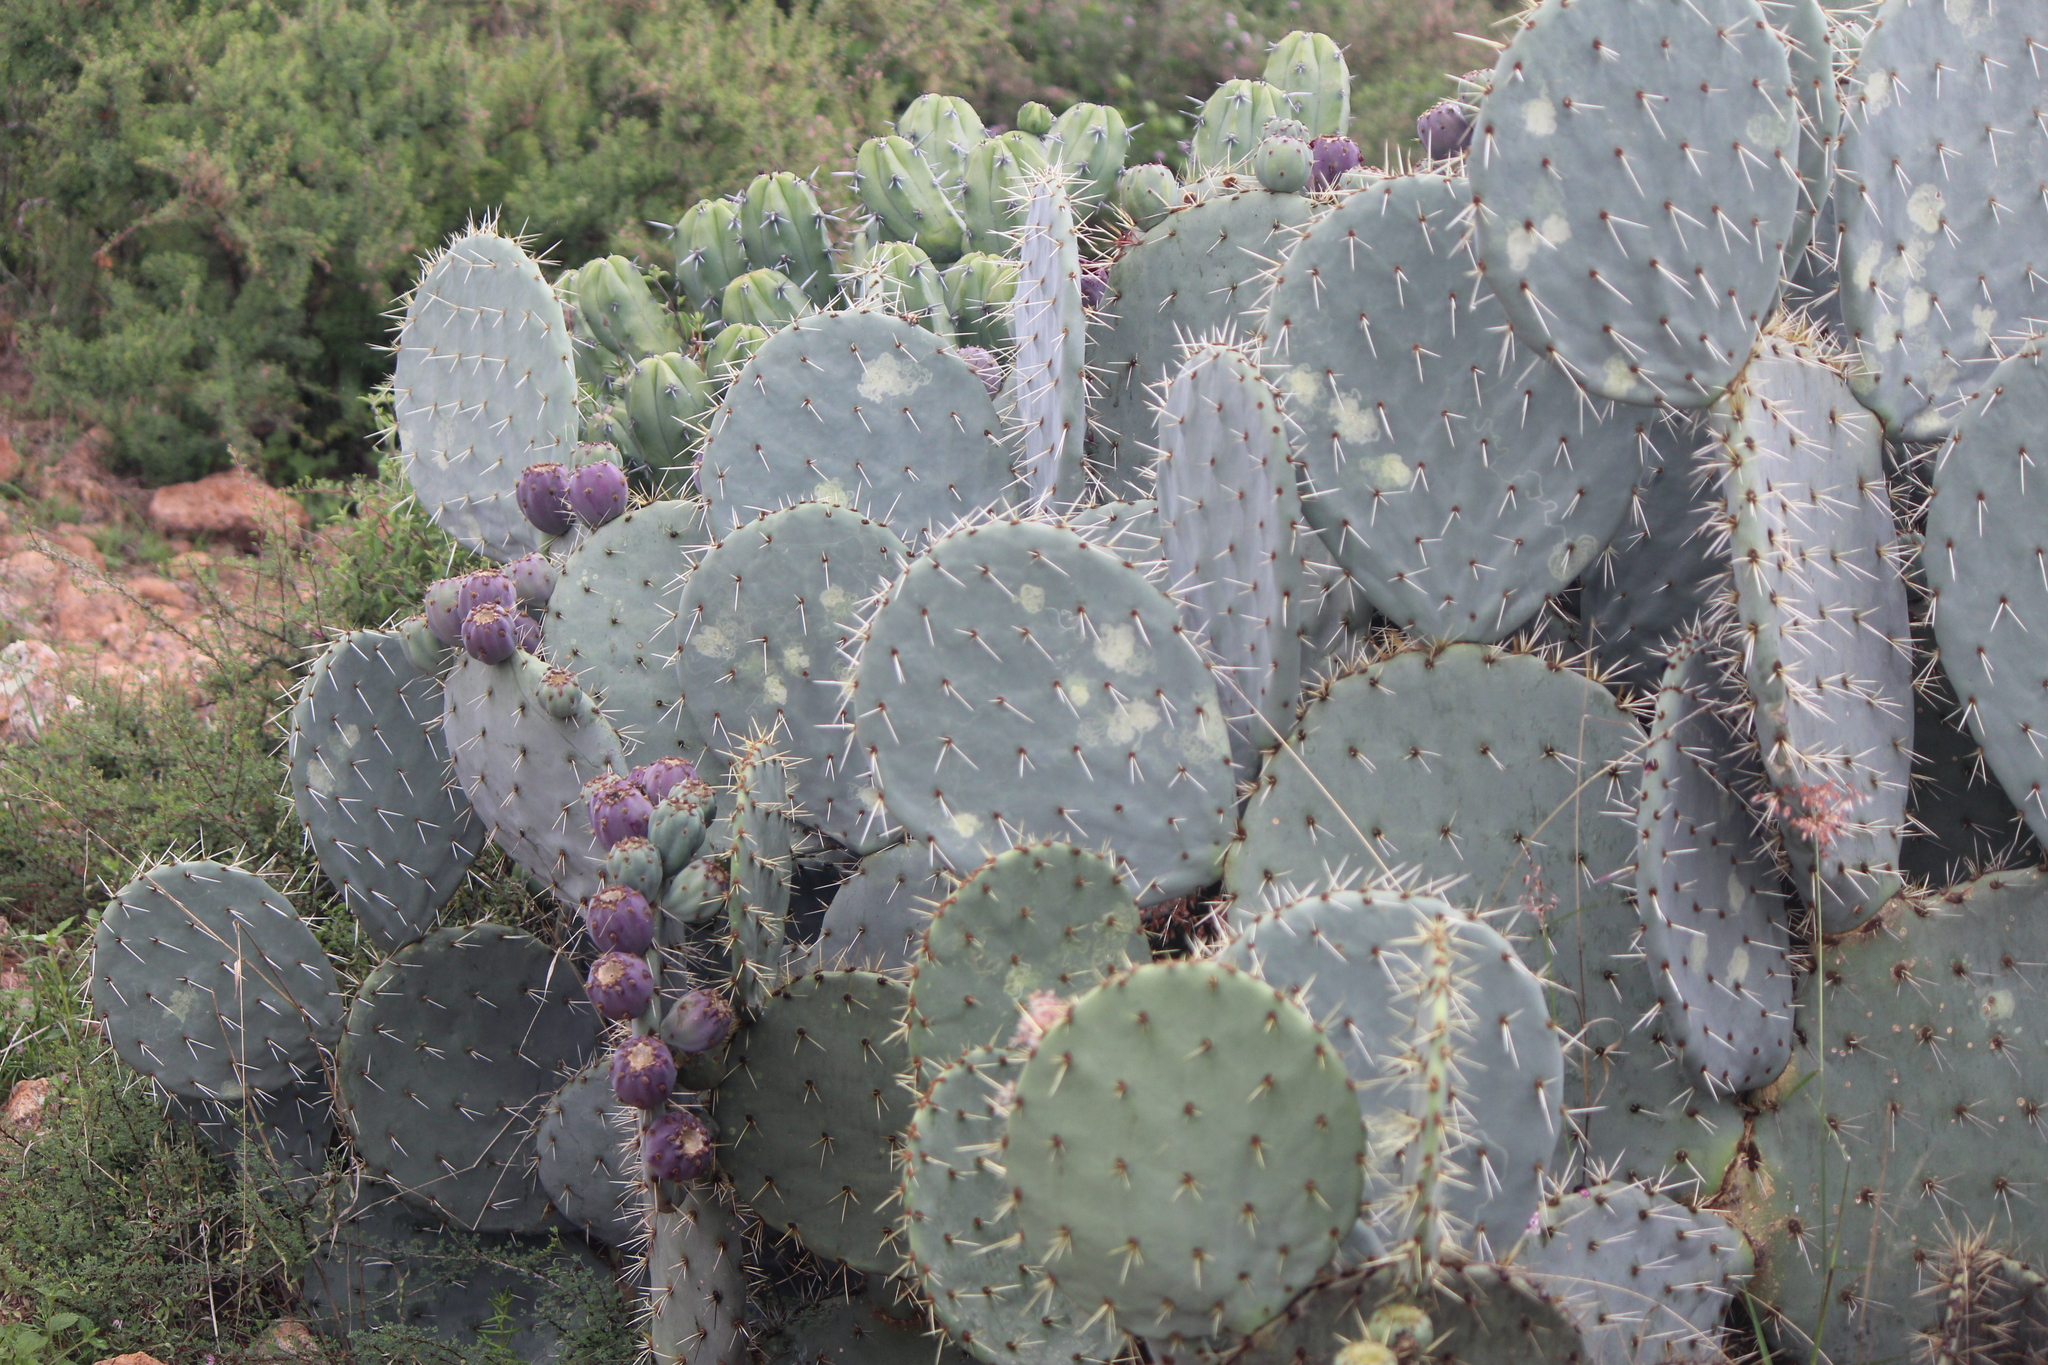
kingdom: Plantae
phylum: Tracheophyta
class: Magnoliopsida
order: Caryophyllales
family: Cactaceae
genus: Opuntia
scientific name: Opuntia robusta
